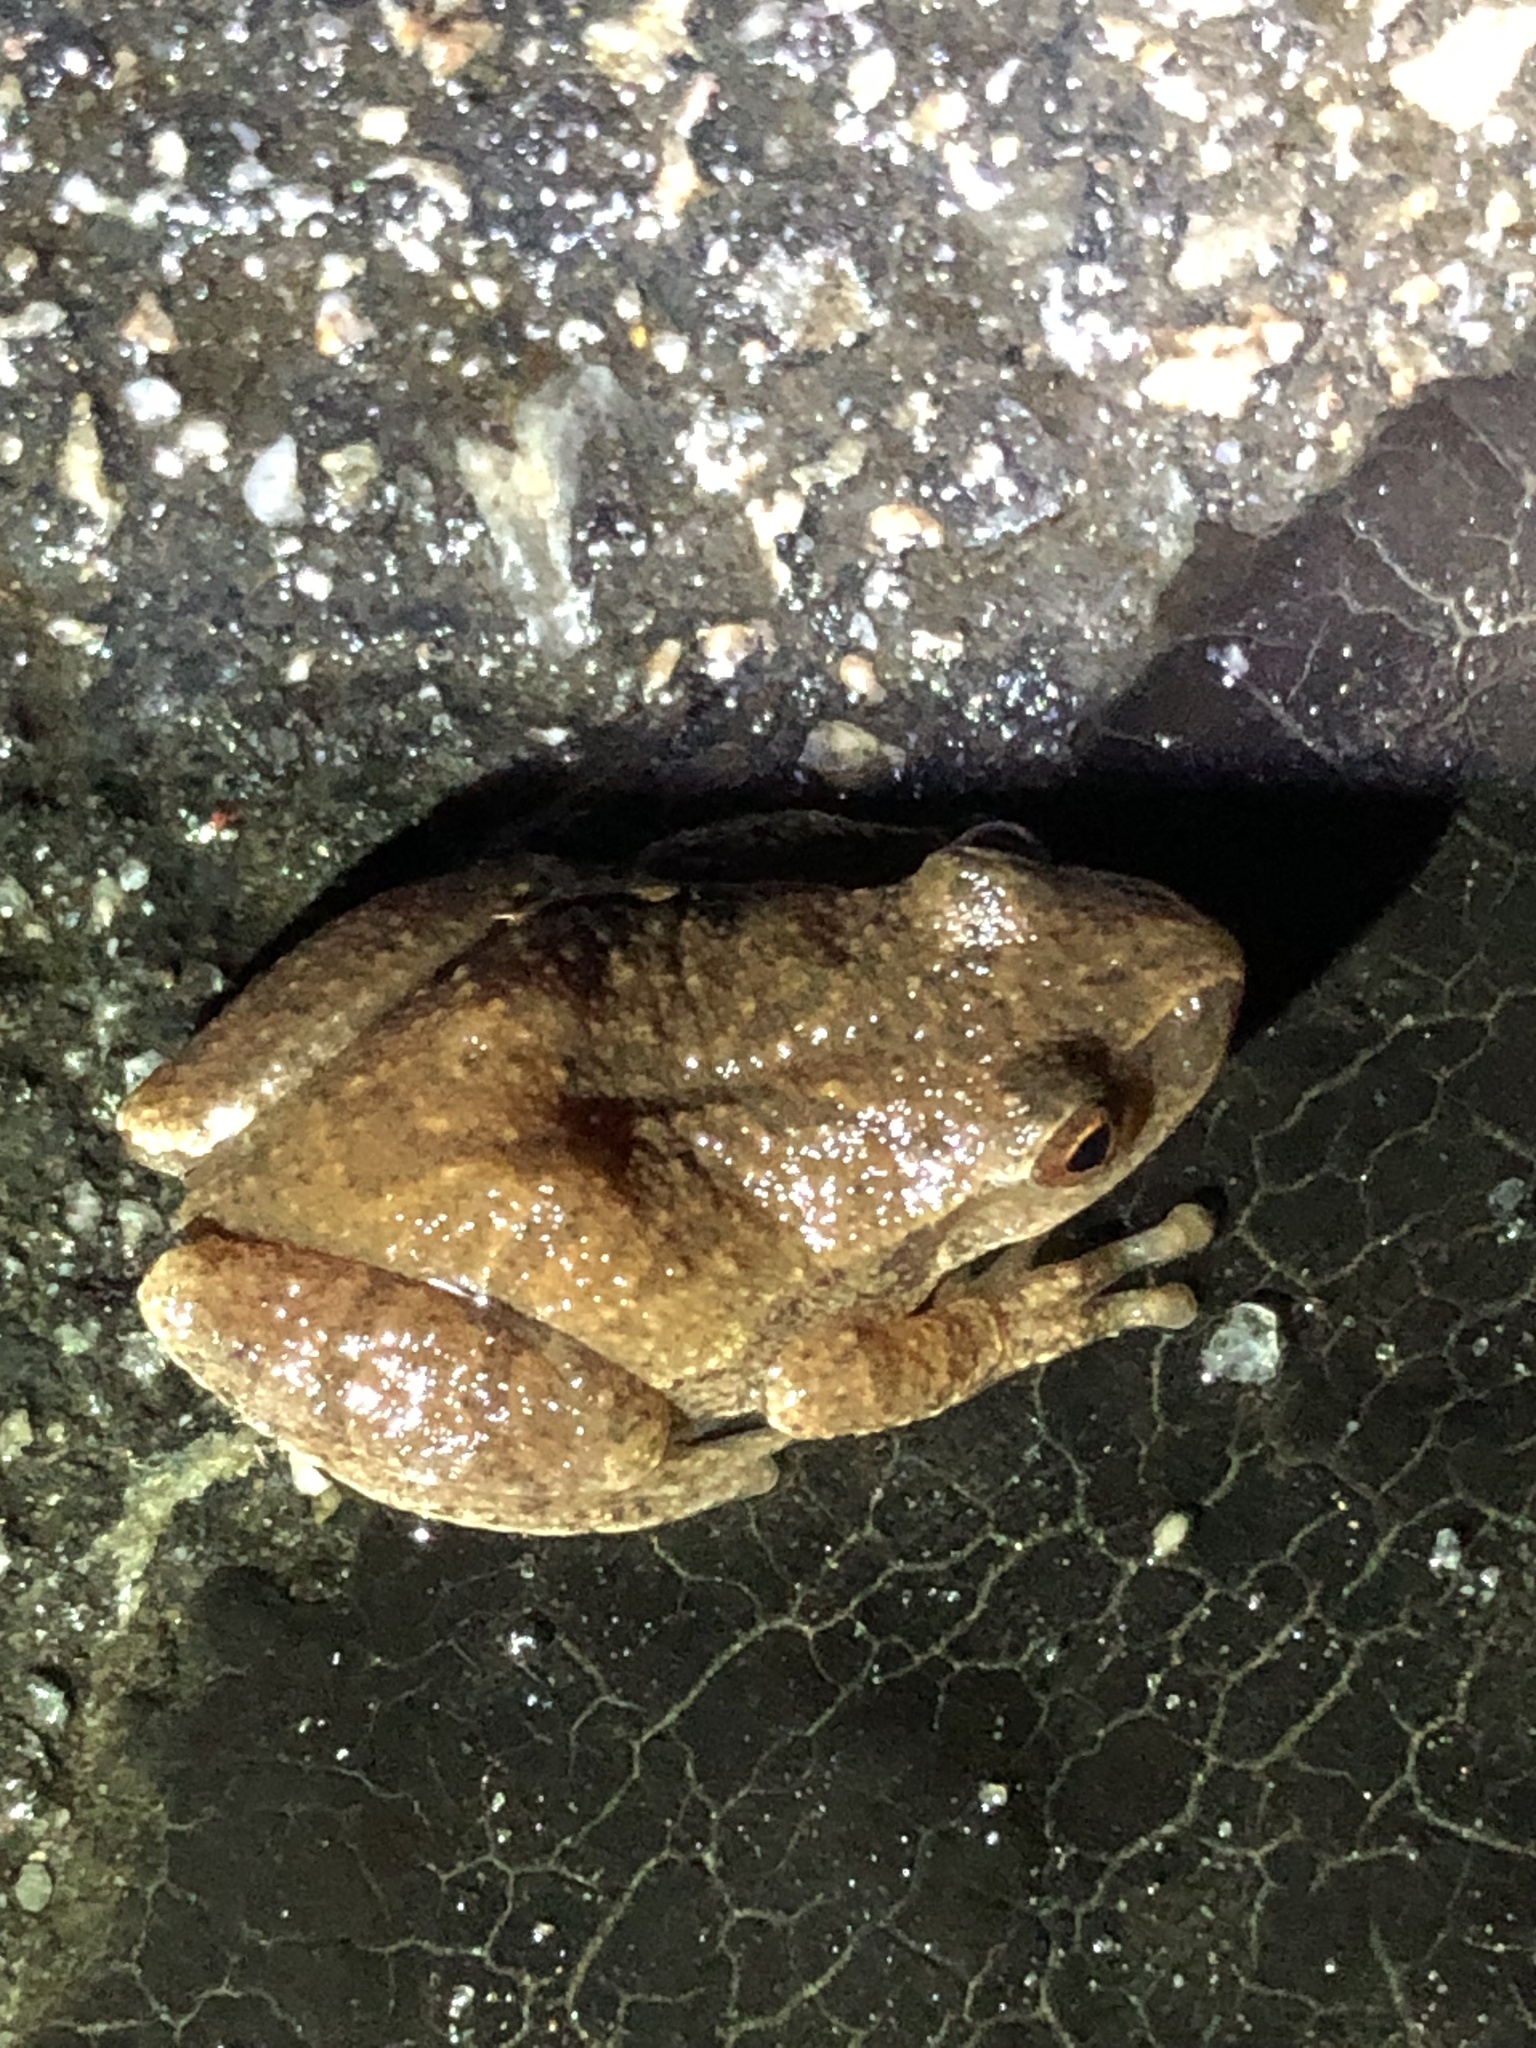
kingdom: Animalia
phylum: Chordata
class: Amphibia
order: Anura
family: Hylidae
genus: Pseudacris
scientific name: Pseudacris crucifer
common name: Spring peeper
